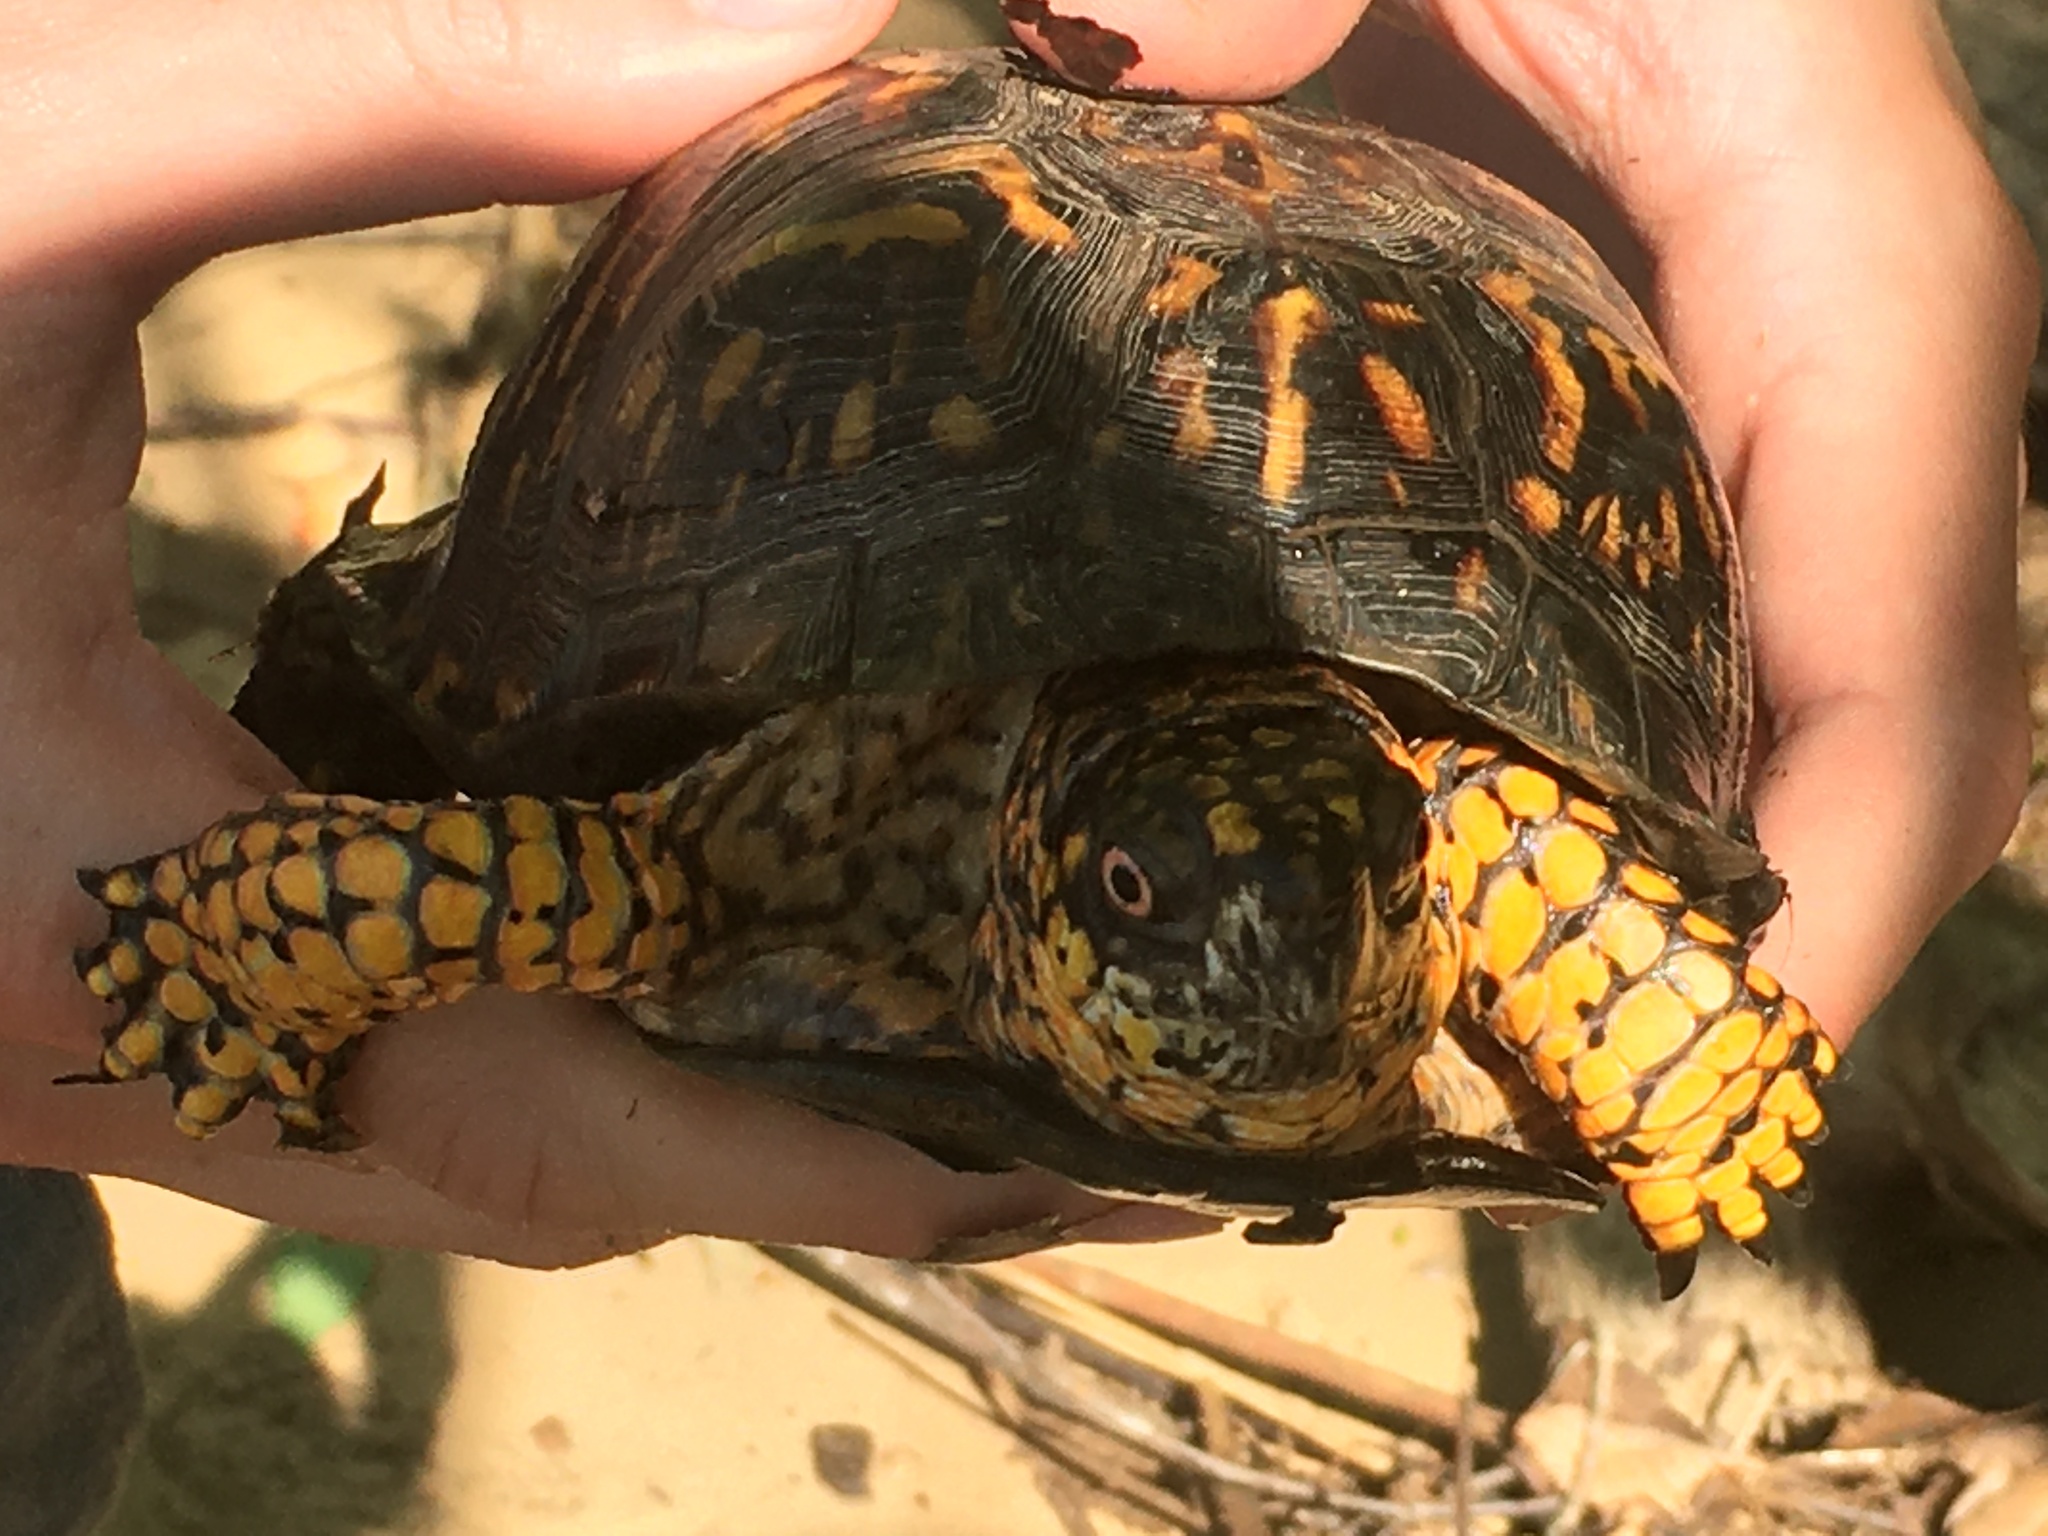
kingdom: Animalia
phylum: Chordata
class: Testudines
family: Emydidae
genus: Terrapene
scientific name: Terrapene carolina
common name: Common box turtle
